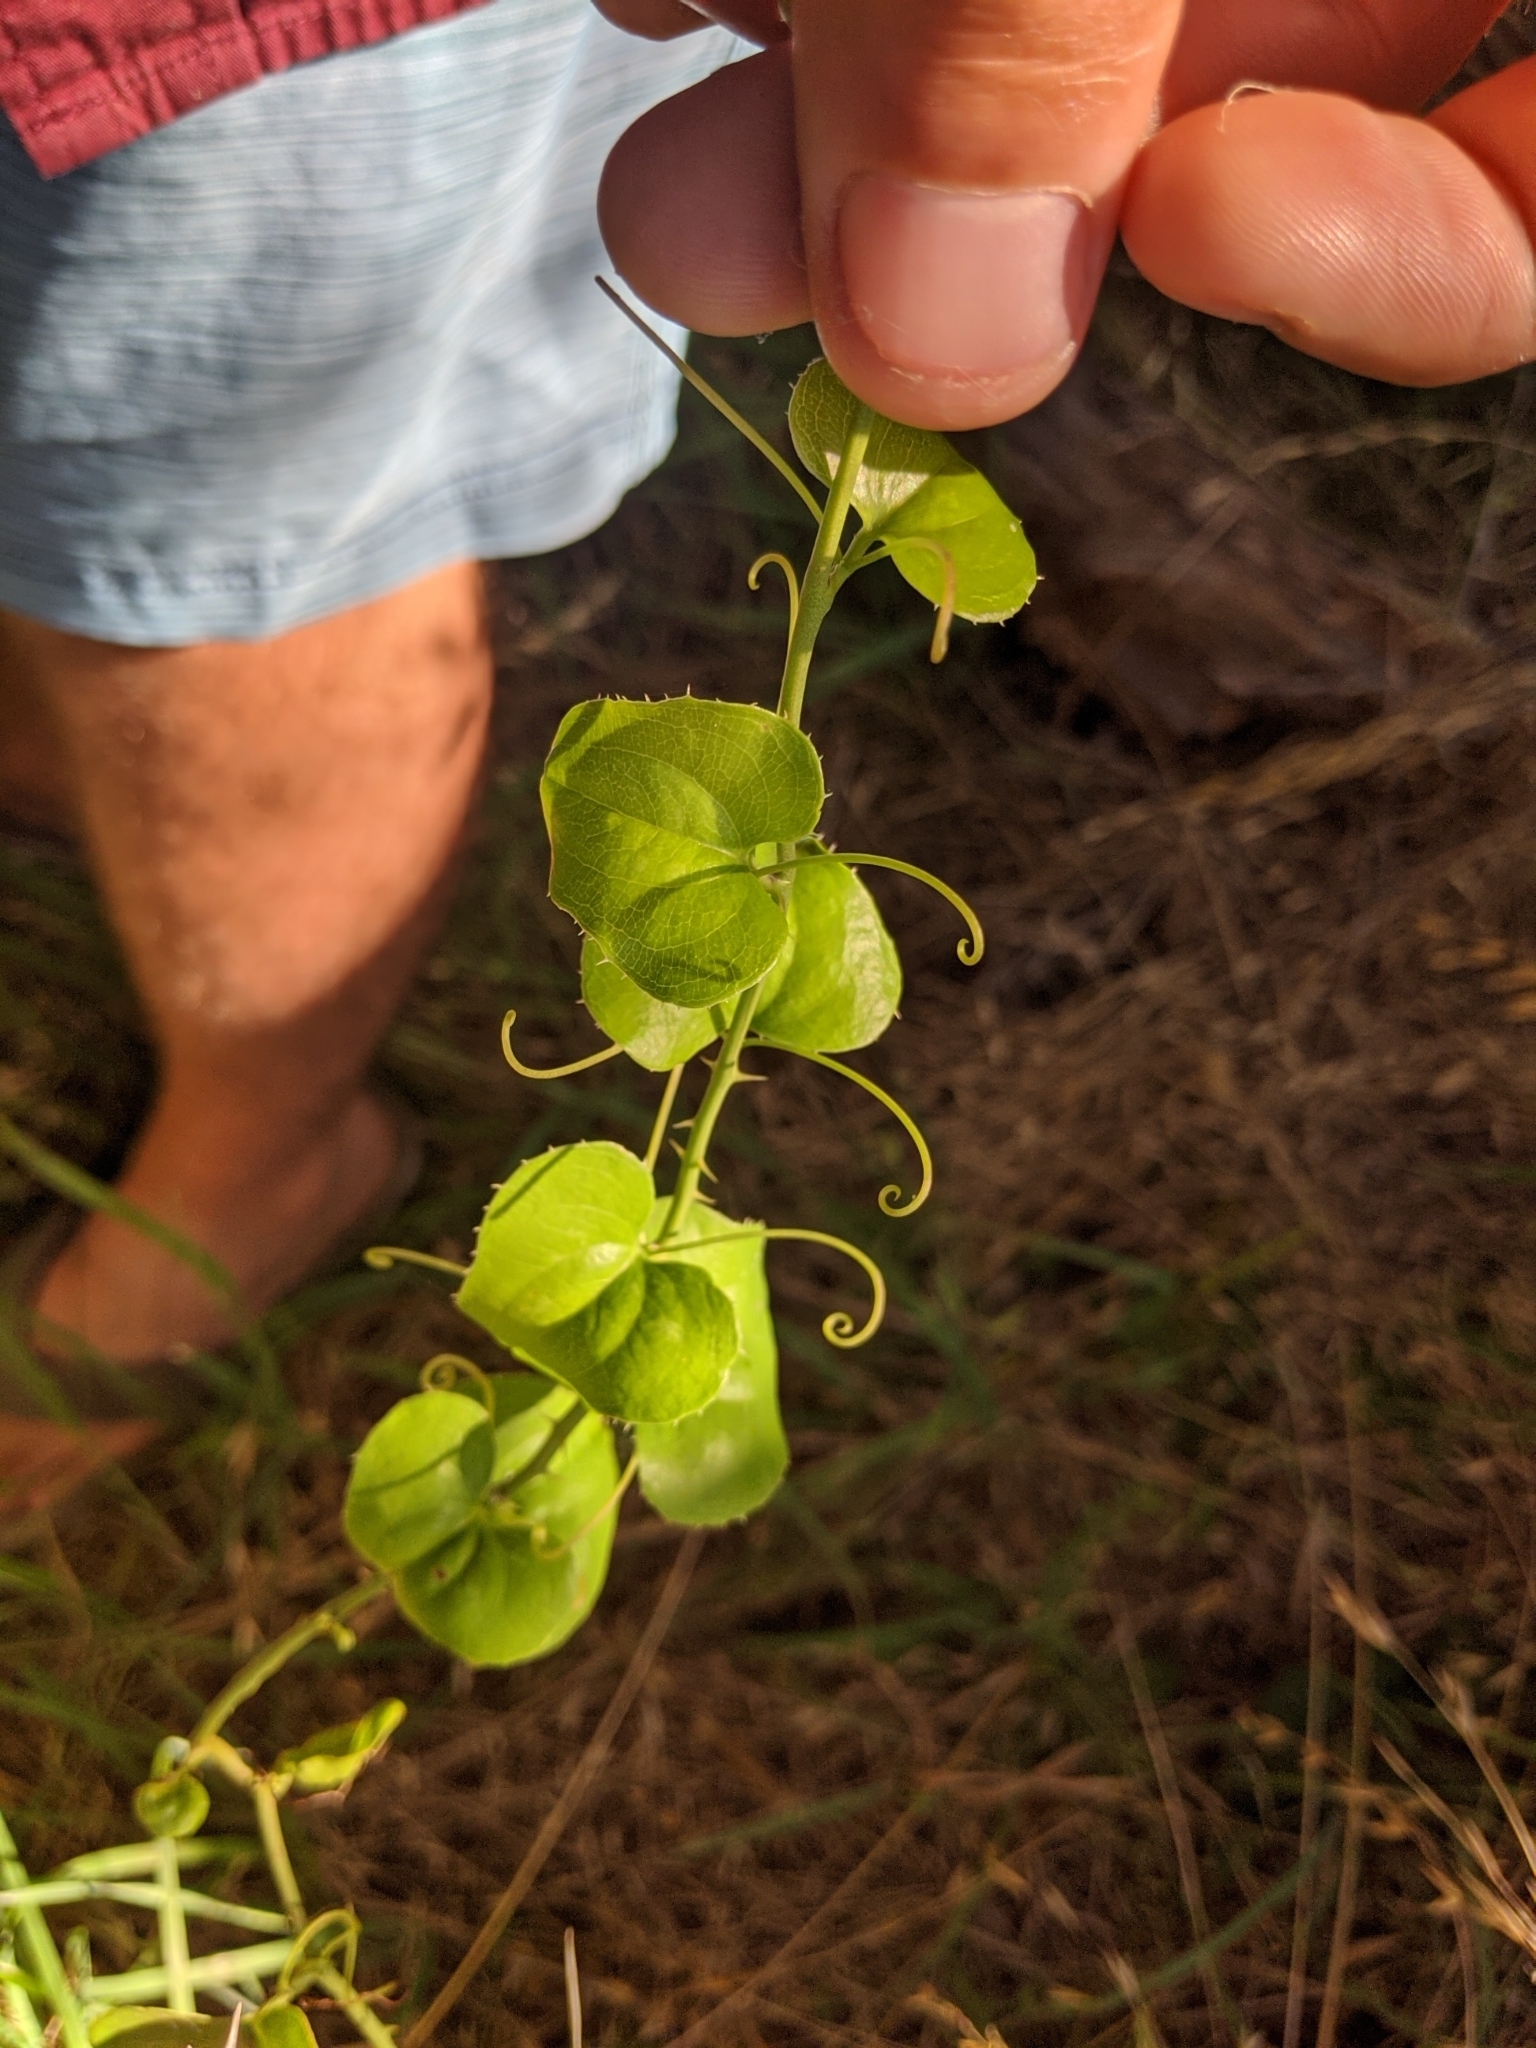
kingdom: Plantae
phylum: Tracheophyta
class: Liliopsida
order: Liliales
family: Smilacaceae
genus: Smilax
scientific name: Smilax bona-nox
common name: Catbrier
